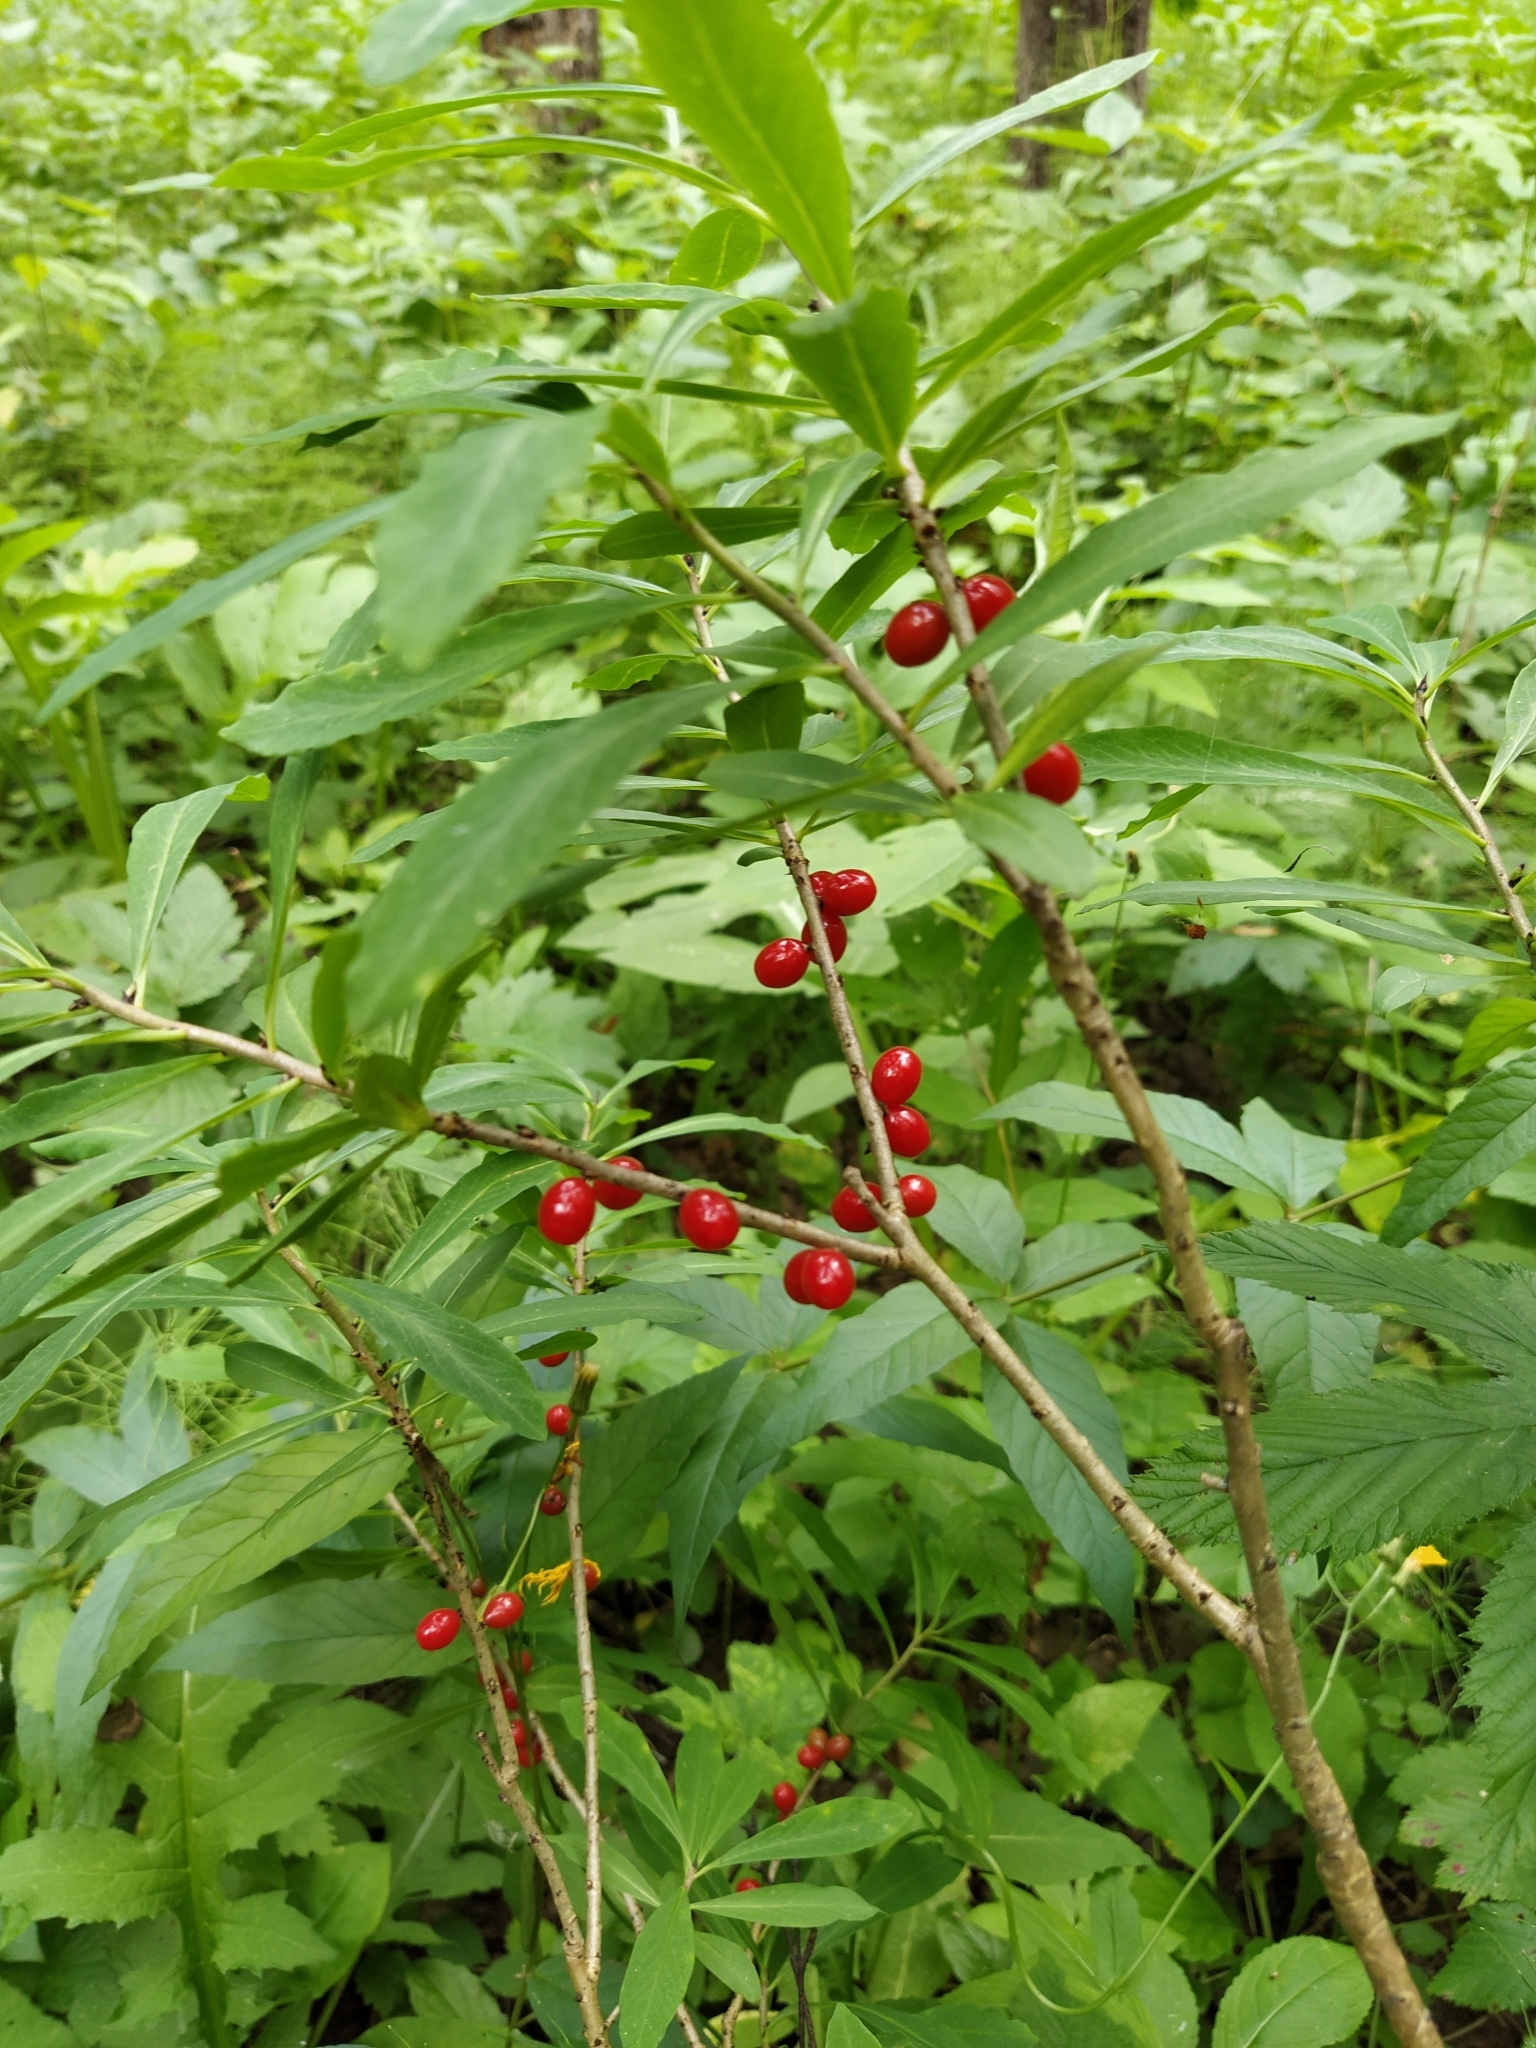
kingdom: Plantae
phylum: Tracheophyta
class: Magnoliopsida
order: Malvales
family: Thymelaeaceae
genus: Daphne
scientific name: Daphne mezereum
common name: Mezereon
